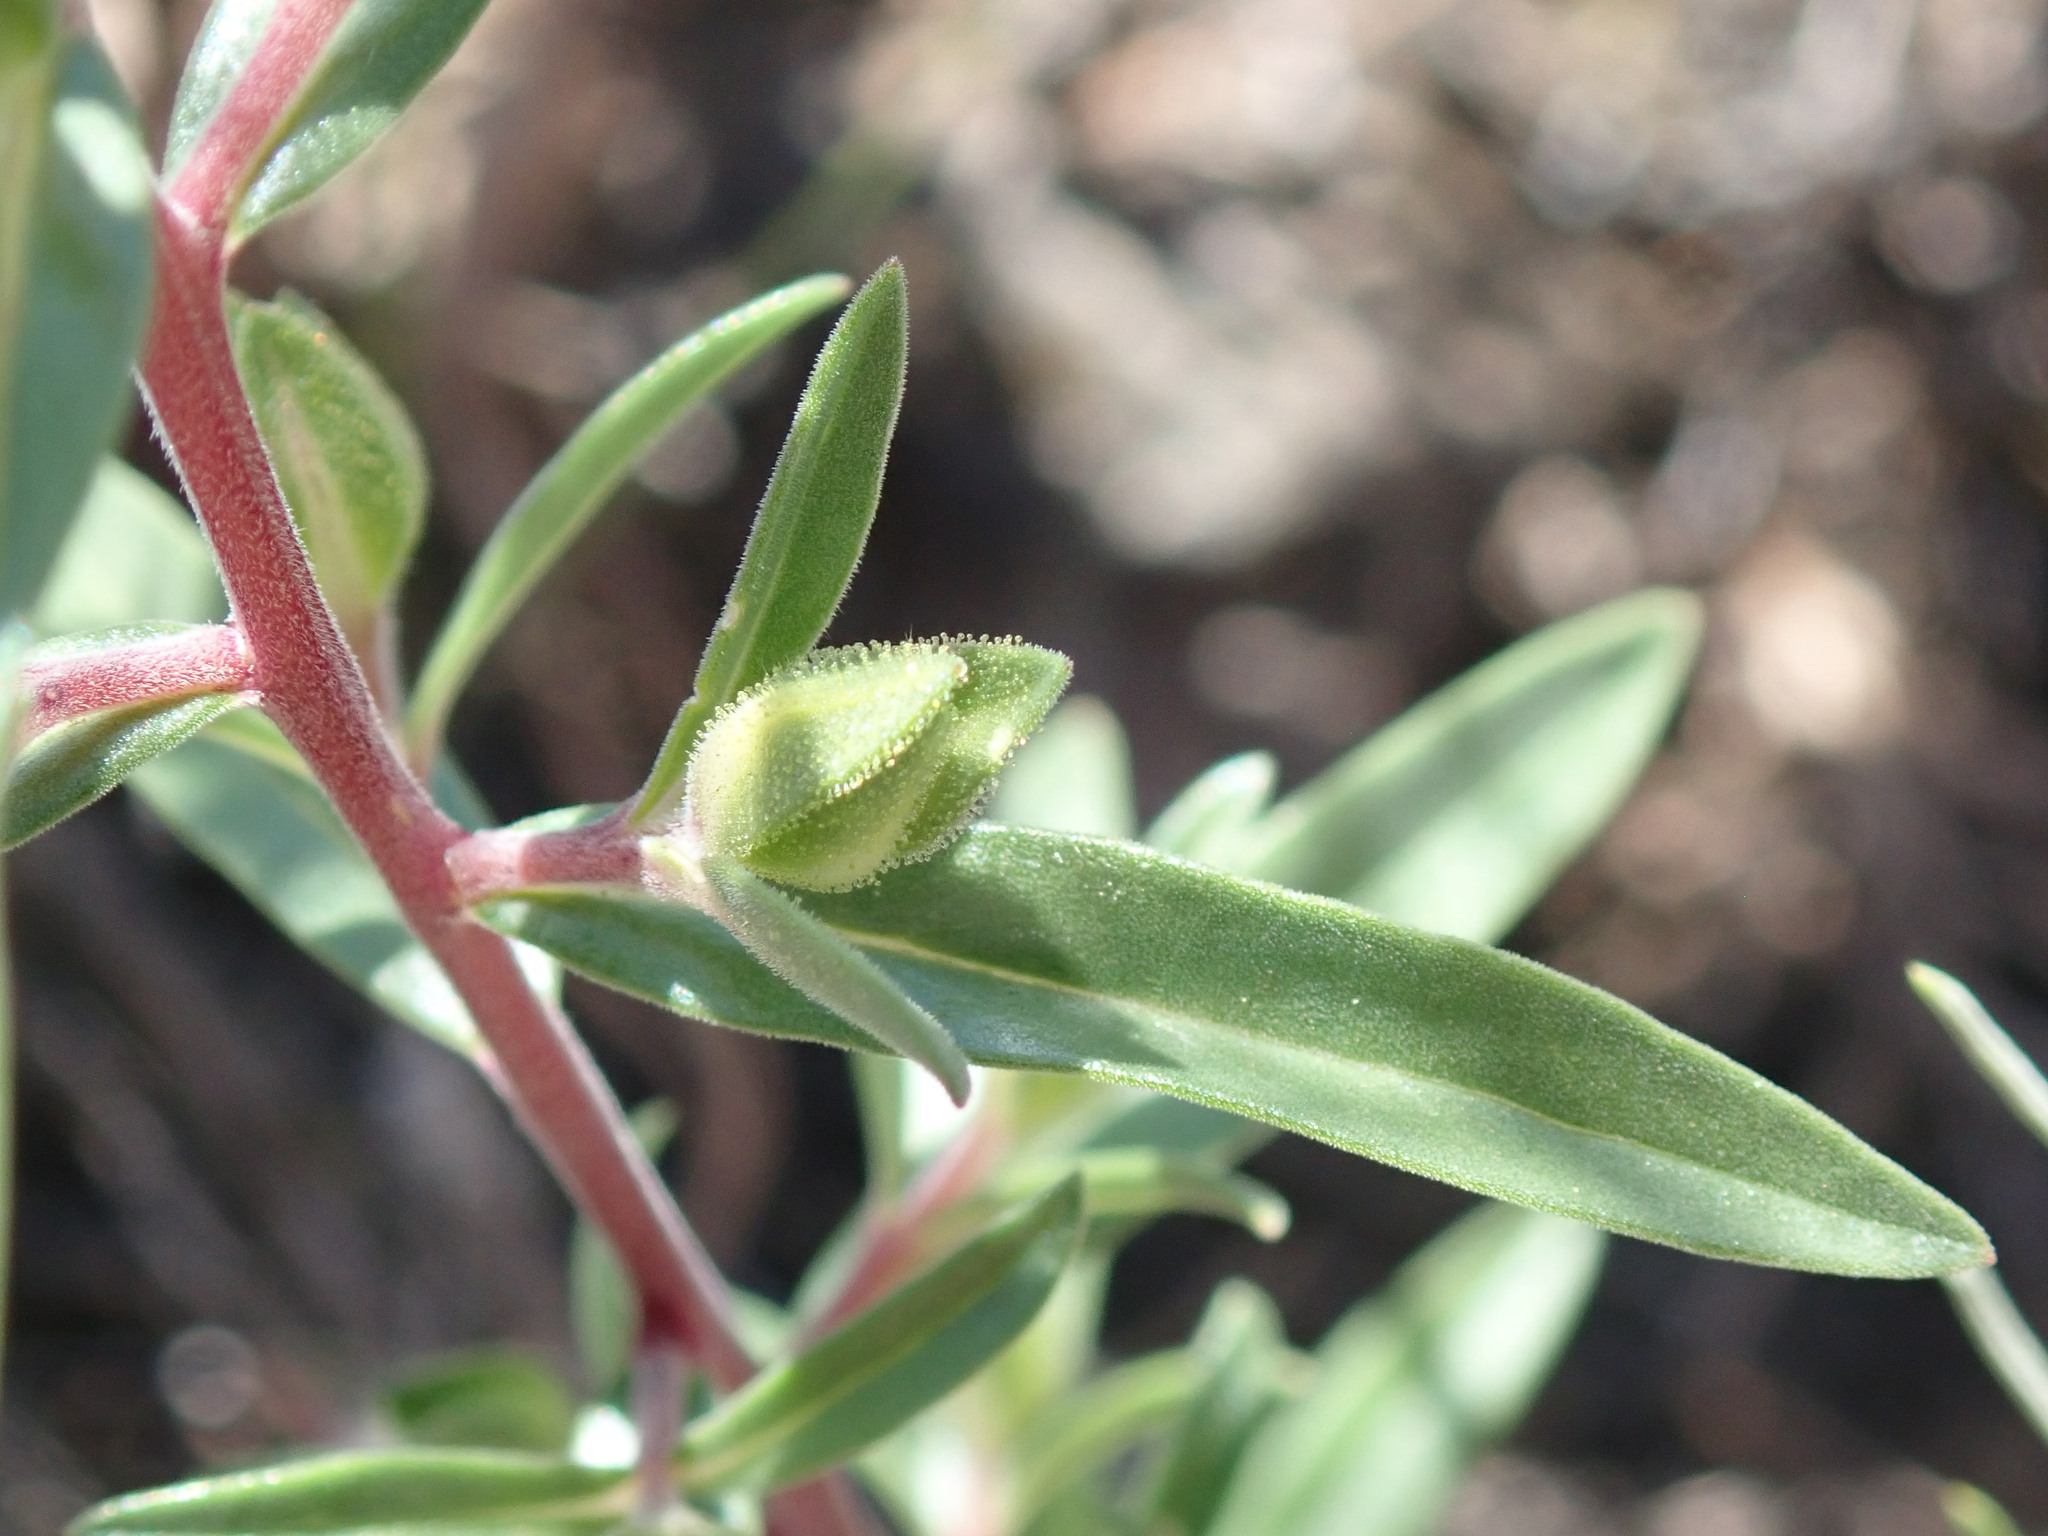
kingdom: Plantae
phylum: Tracheophyta
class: Magnoliopsida
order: Ericales
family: Polemoniaceae
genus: Collomia
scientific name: Collomia grandiflora
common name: California strawflower
